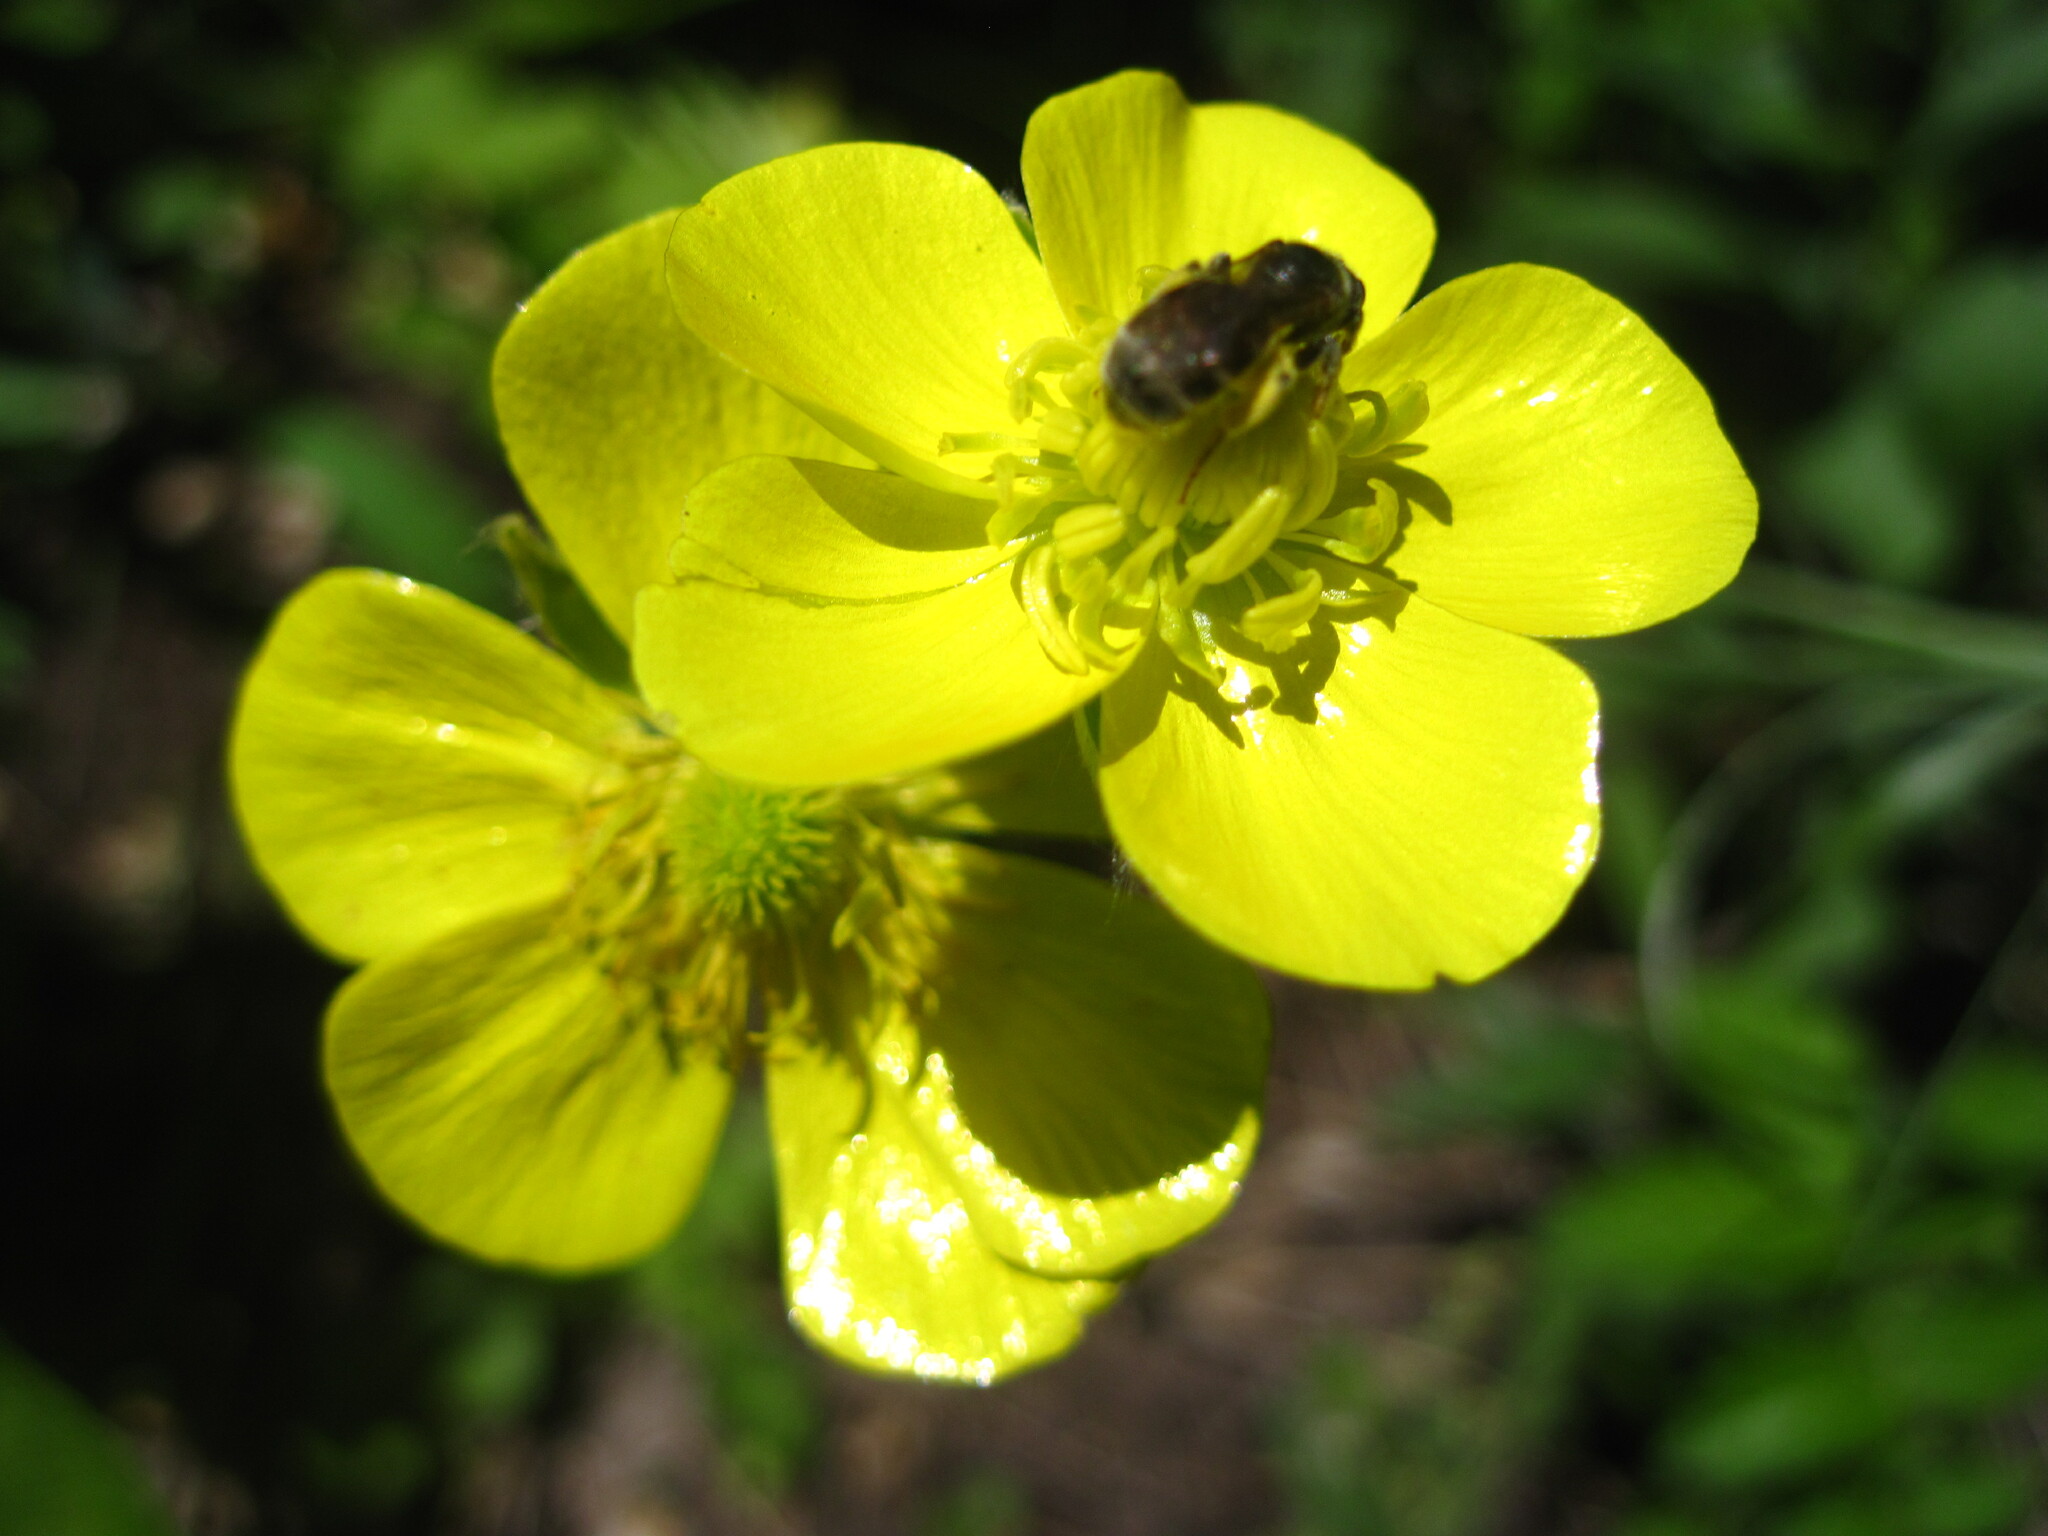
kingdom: Plantae
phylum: Tracheophyta
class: Magnoliopsida
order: Ranunculales
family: Ranunculaceae
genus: Ranunculus
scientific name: Ranunculus illyricus
